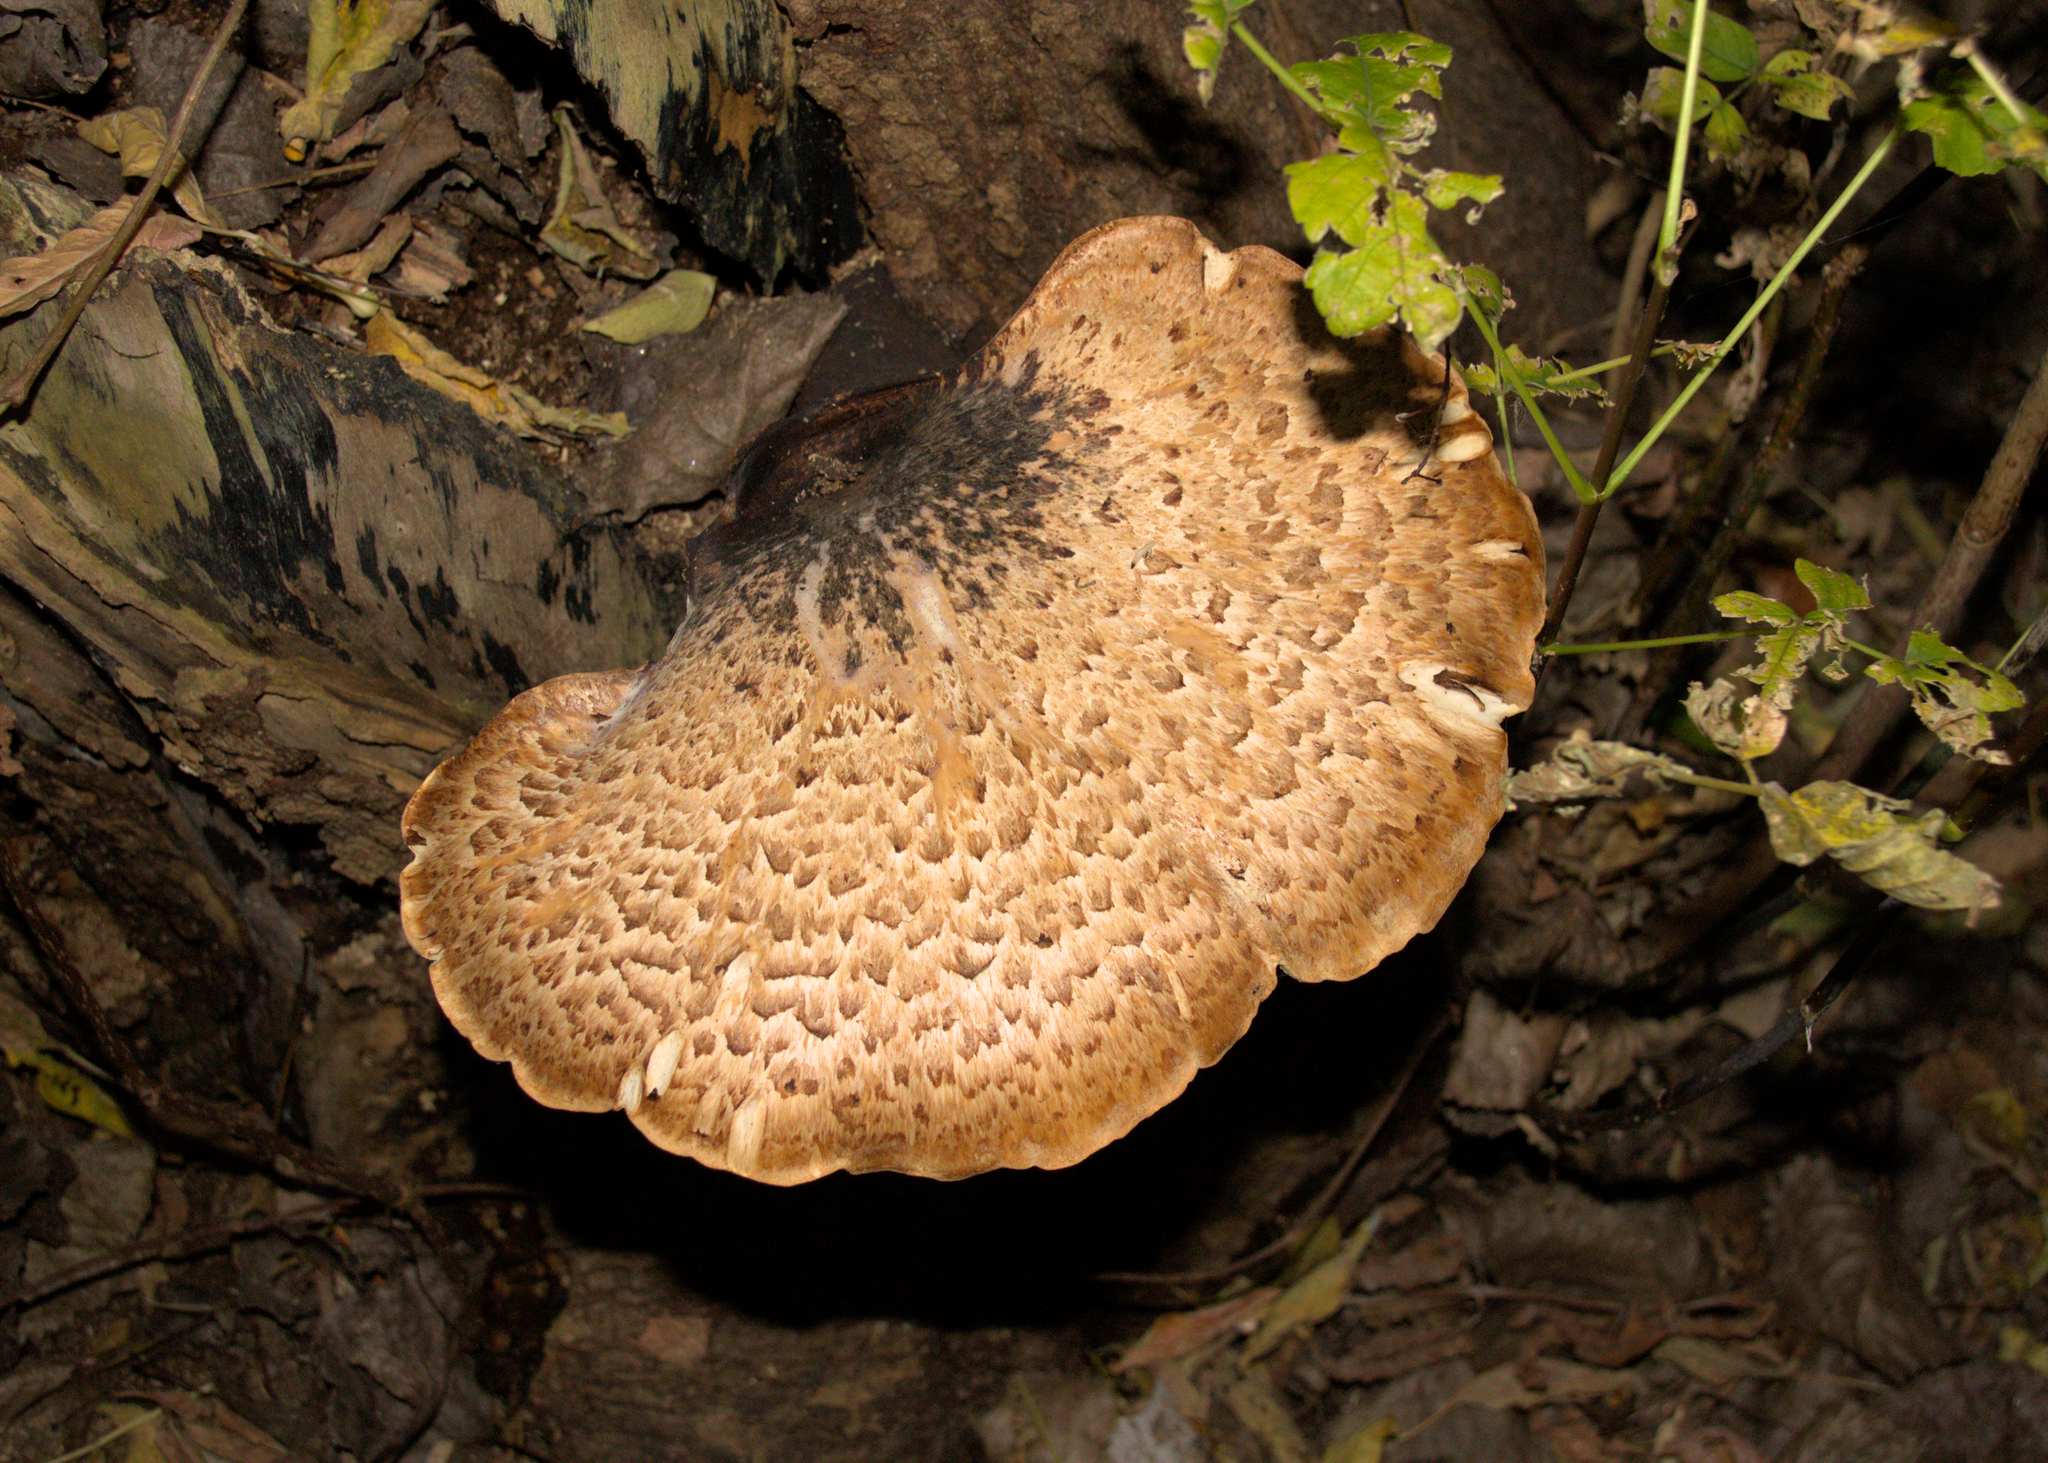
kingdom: Fungi
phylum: Basidiomycota
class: Agaricomycetes
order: Polyporales
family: Polyporaceae
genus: Cerioporus
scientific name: Cerioporus squamosus
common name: Dryad's saddle
